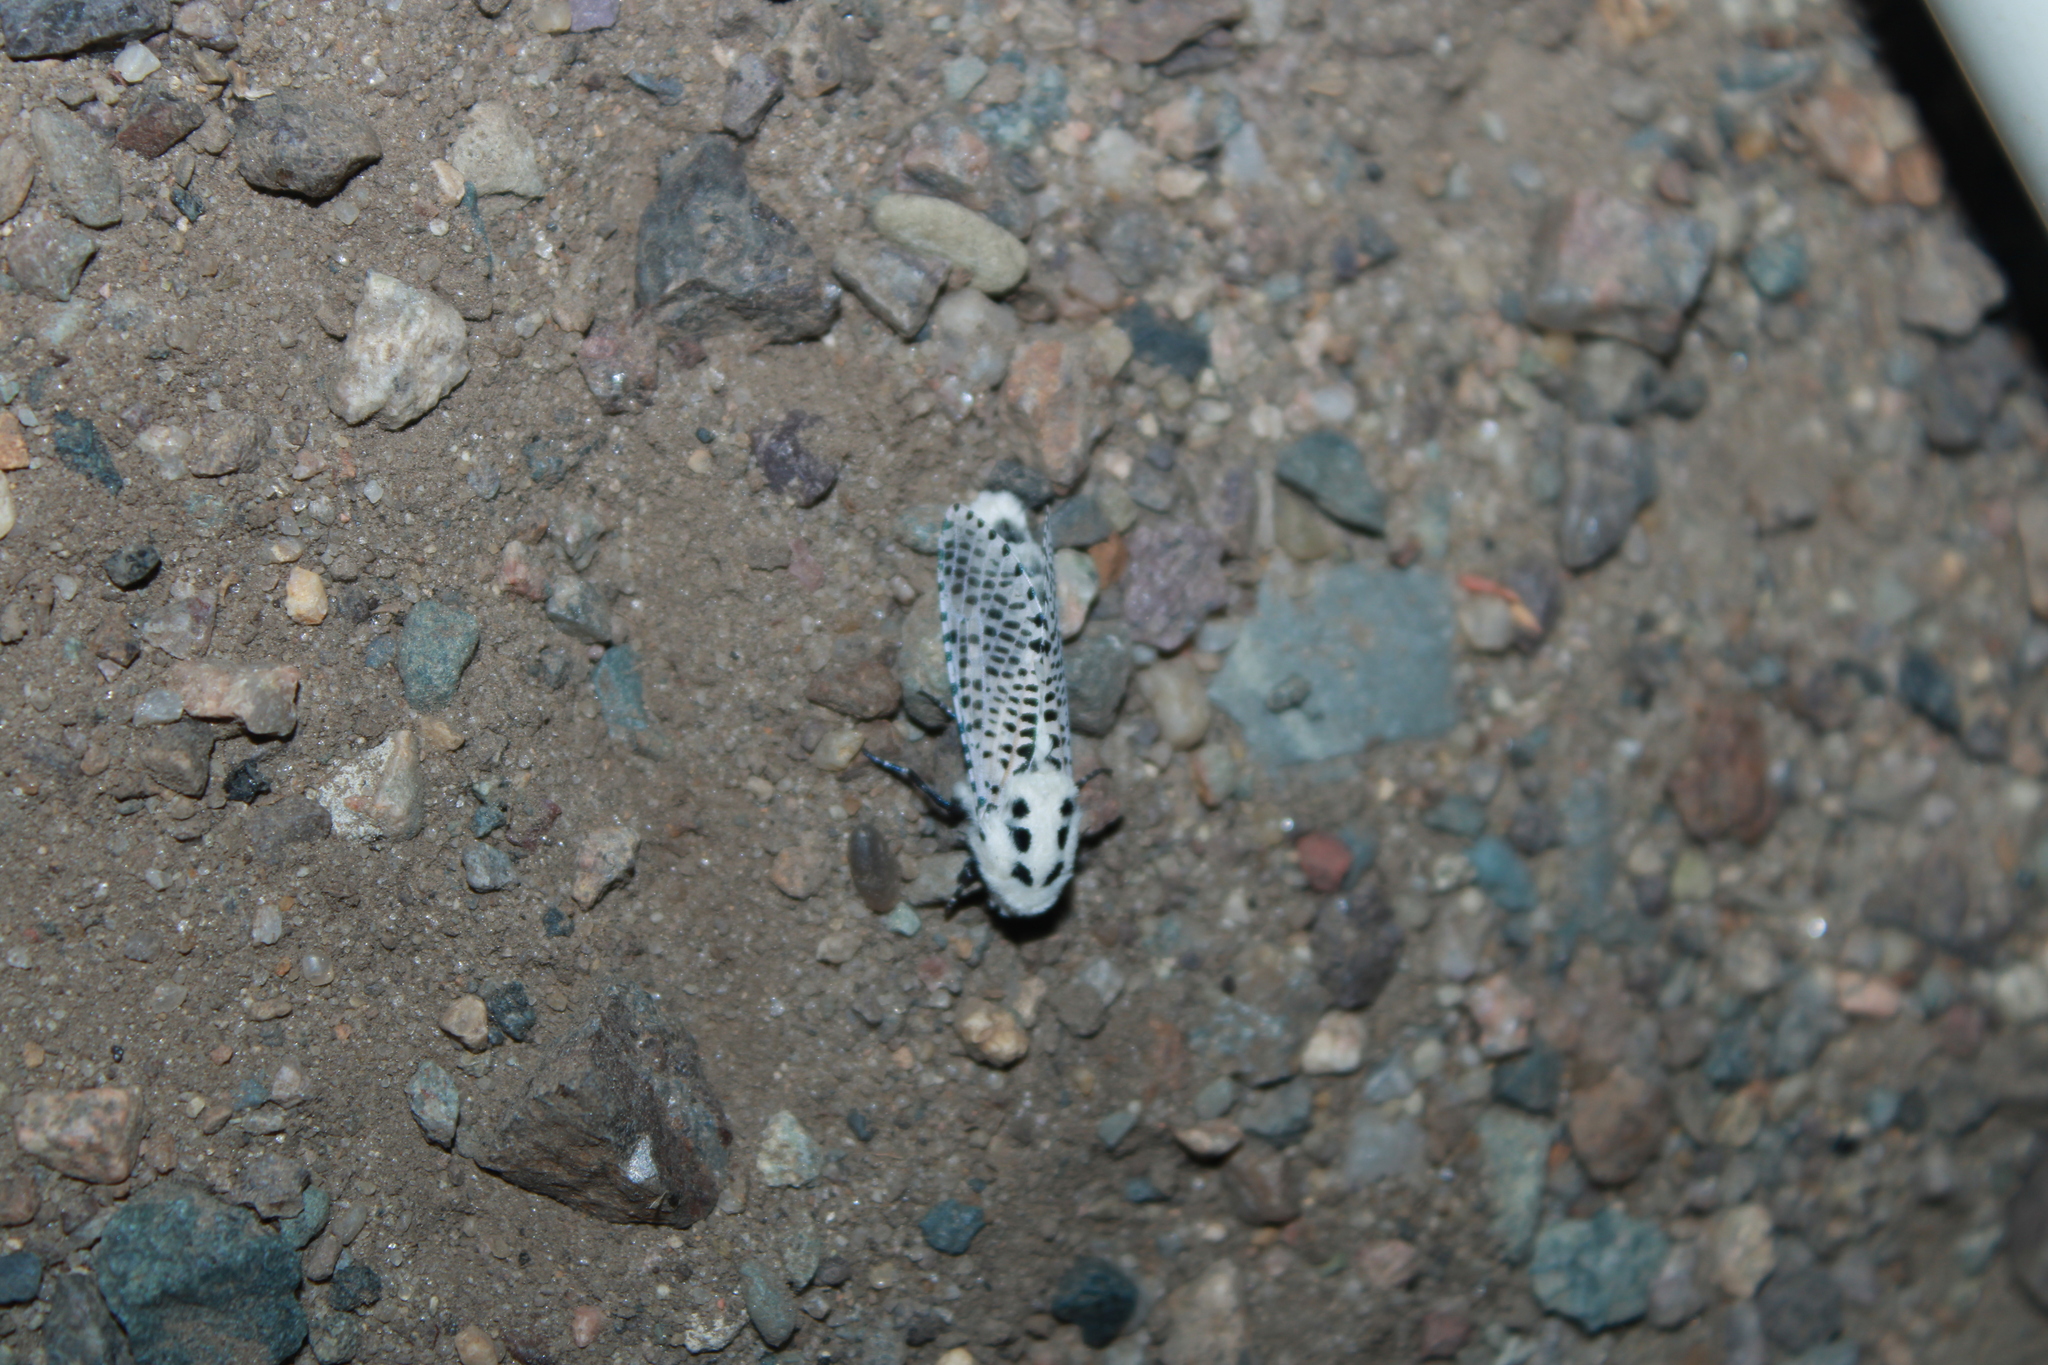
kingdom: Animalia
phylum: Arthropoda
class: Insecta
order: Lepidoptera
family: Cossidae
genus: Zeuzera
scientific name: Zeuzera pyrina
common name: Leopard moth
